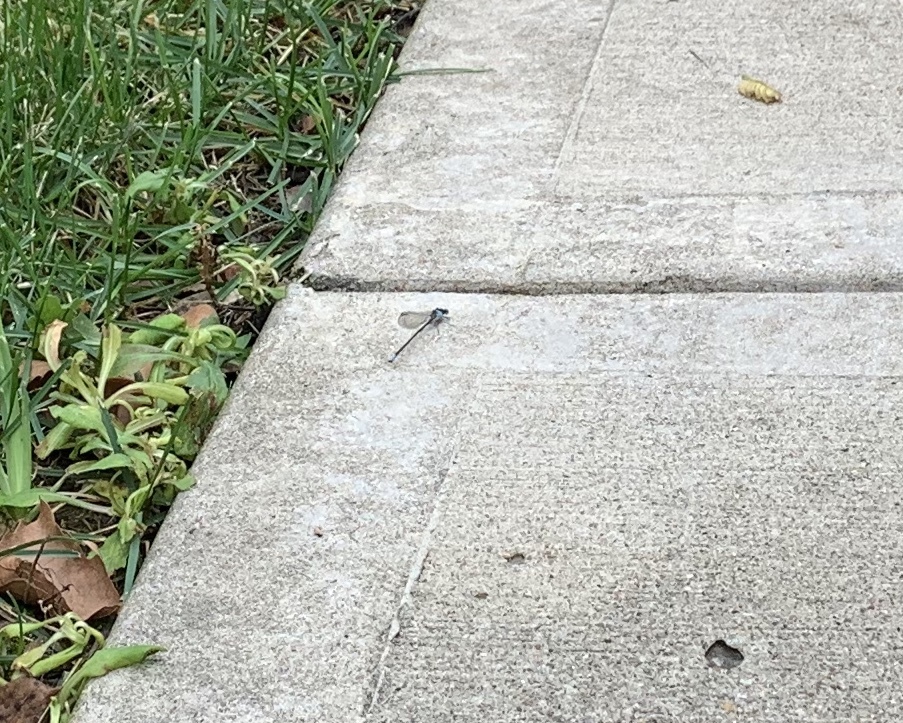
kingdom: Animalia
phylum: Arthropoda
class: Insecta
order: Odonata
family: Coenagrionidae
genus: Argia
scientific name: Argia apicalis
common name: Blue-fronted dancer
